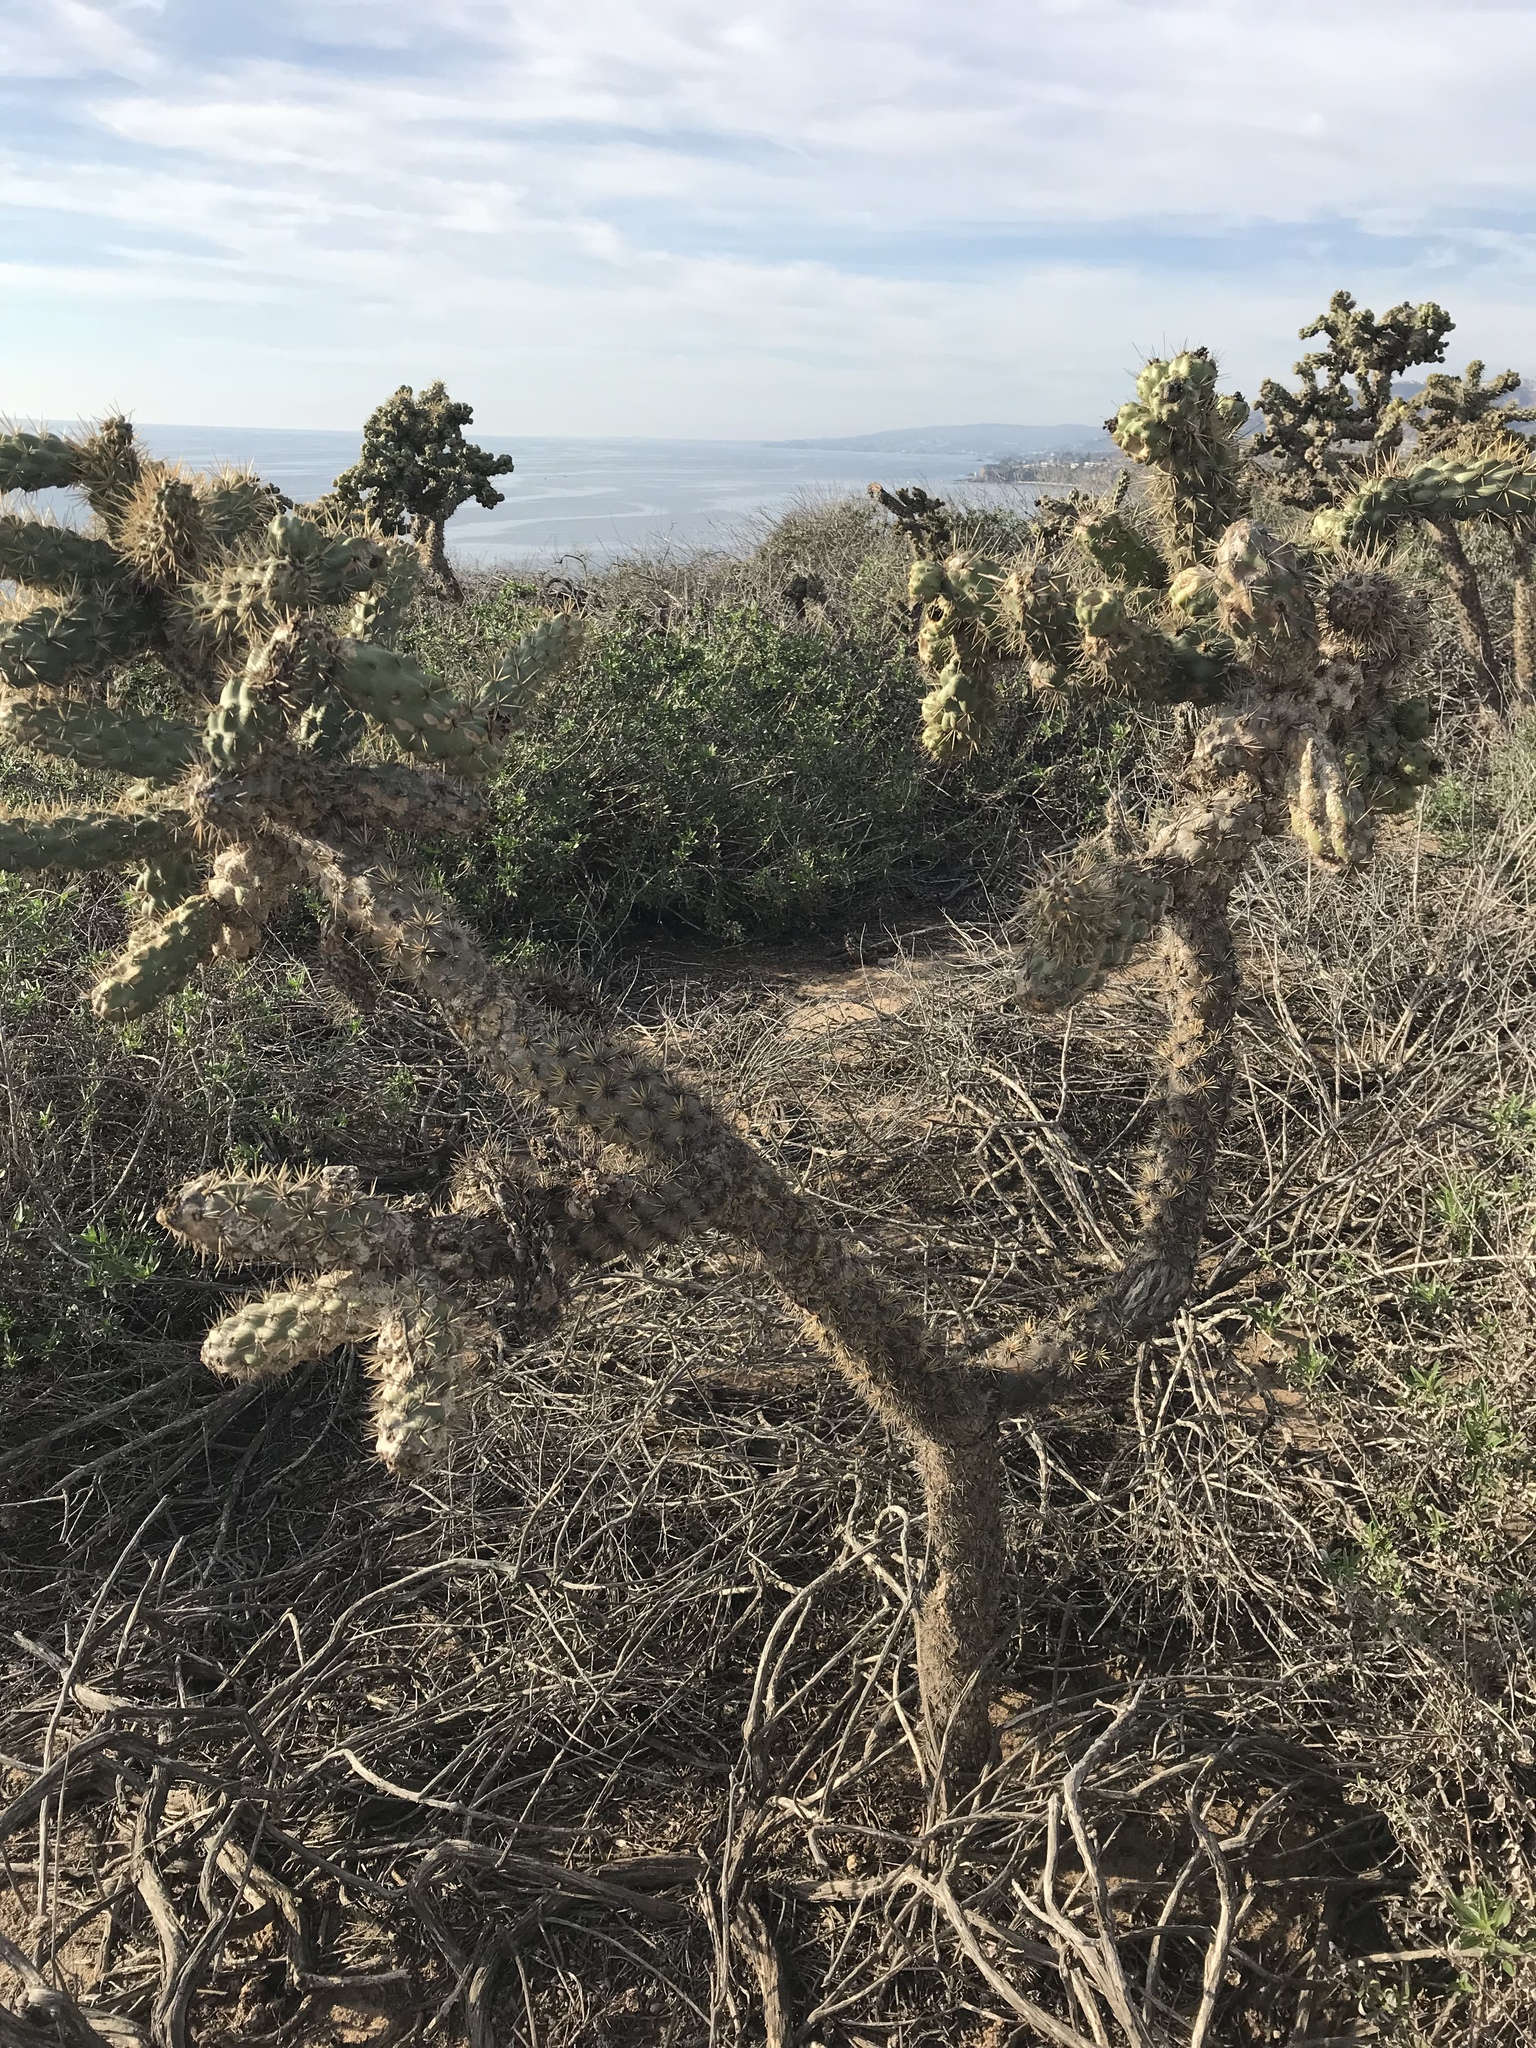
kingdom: Plantae
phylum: Tracheophyta
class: Magnoliopsida
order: Caryophyllales
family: Cactaceae
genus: Cylindropuntia
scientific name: Cylindropuntia prolifera
